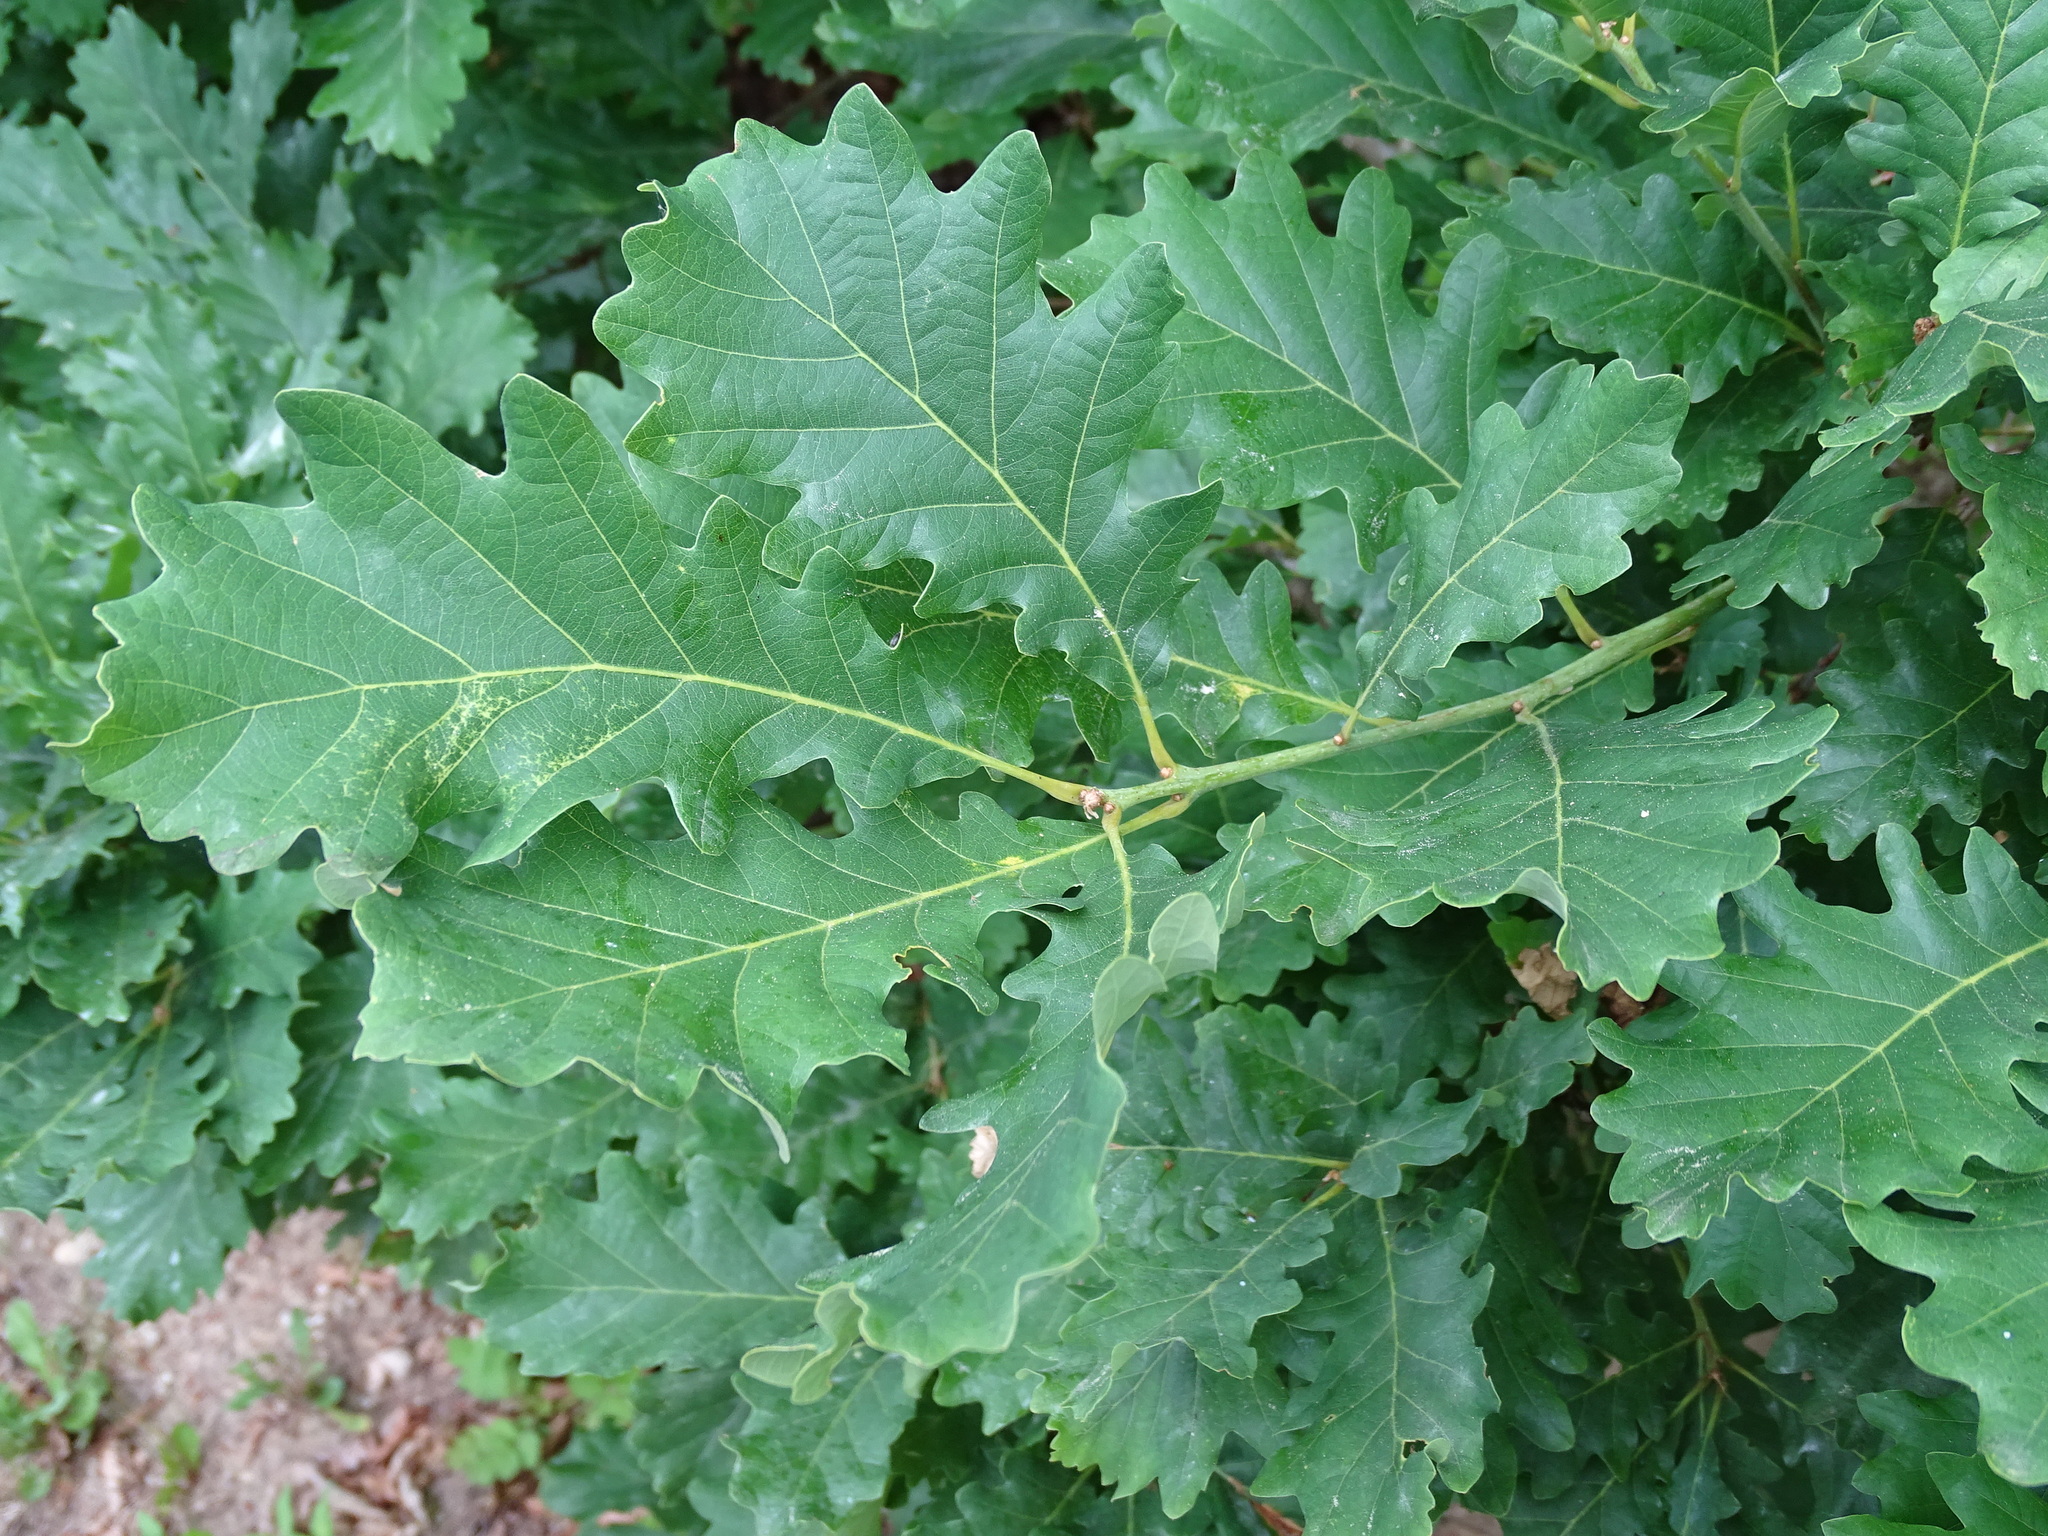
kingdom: Plantae
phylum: Tracheophyta
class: Magnoliopsida
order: Fagales
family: Fagaceae
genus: Quercus
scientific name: Quercus petraea
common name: Sessile oak
